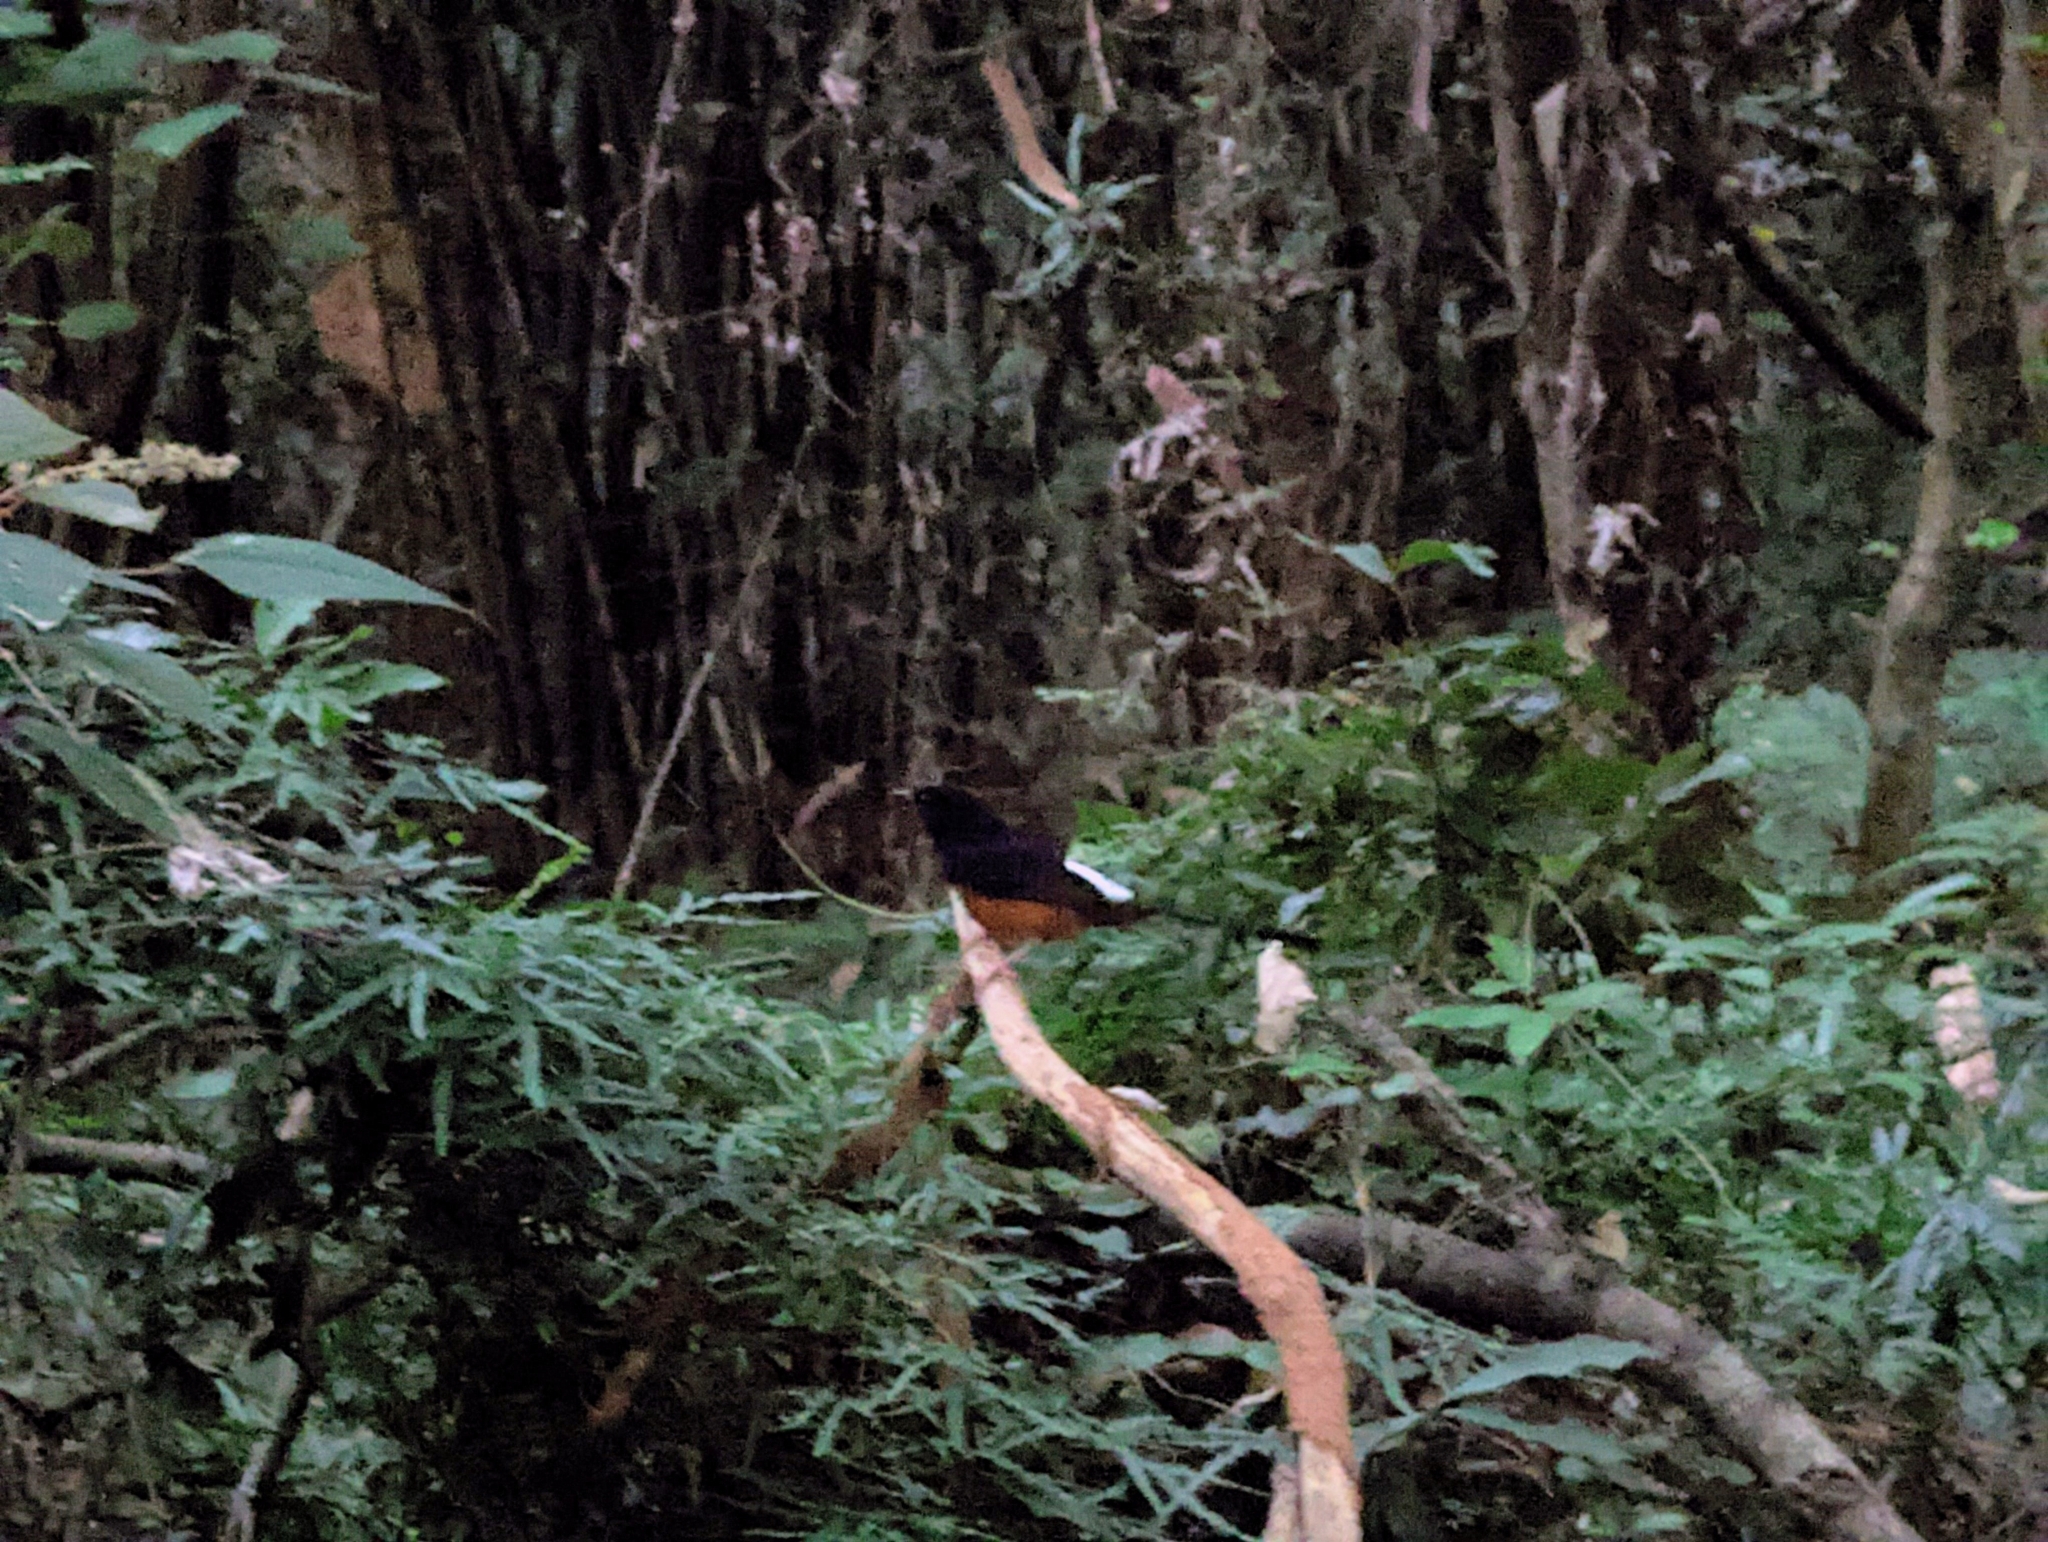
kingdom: Animalia
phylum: Chordata
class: Aves
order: Passeriformes
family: Muscicapidae
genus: Copsychus
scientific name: Copsychus malabaricus
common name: White-rumped shama
